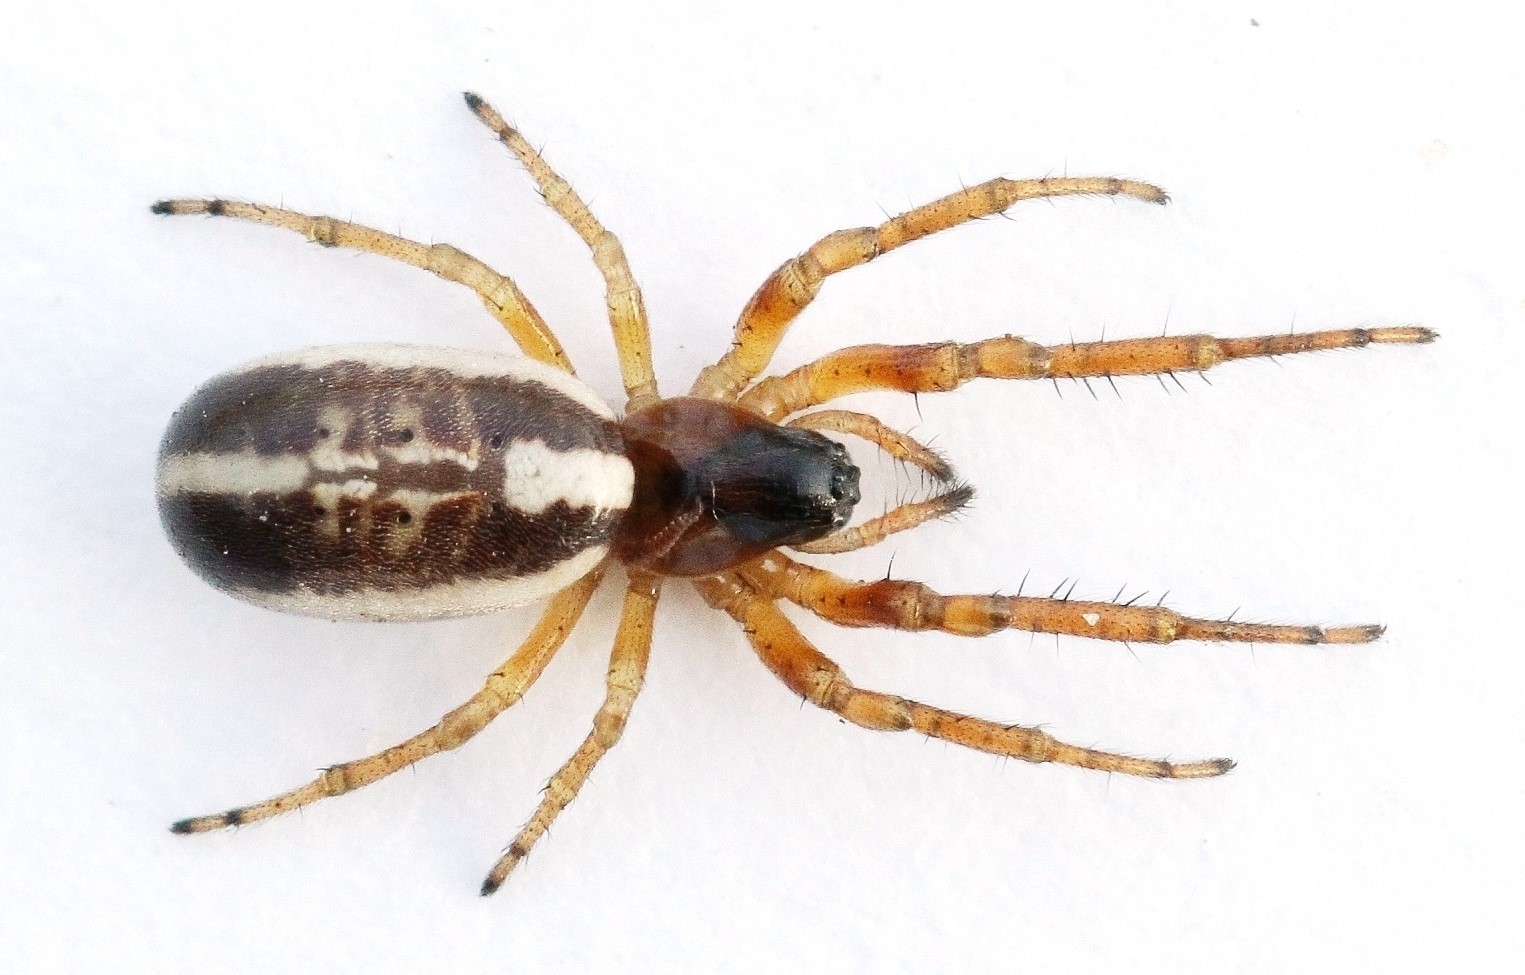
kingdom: Animalia
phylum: Arthropoda
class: Arachnida
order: Araneae
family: Araneidae
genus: Singa
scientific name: Singa lucina
